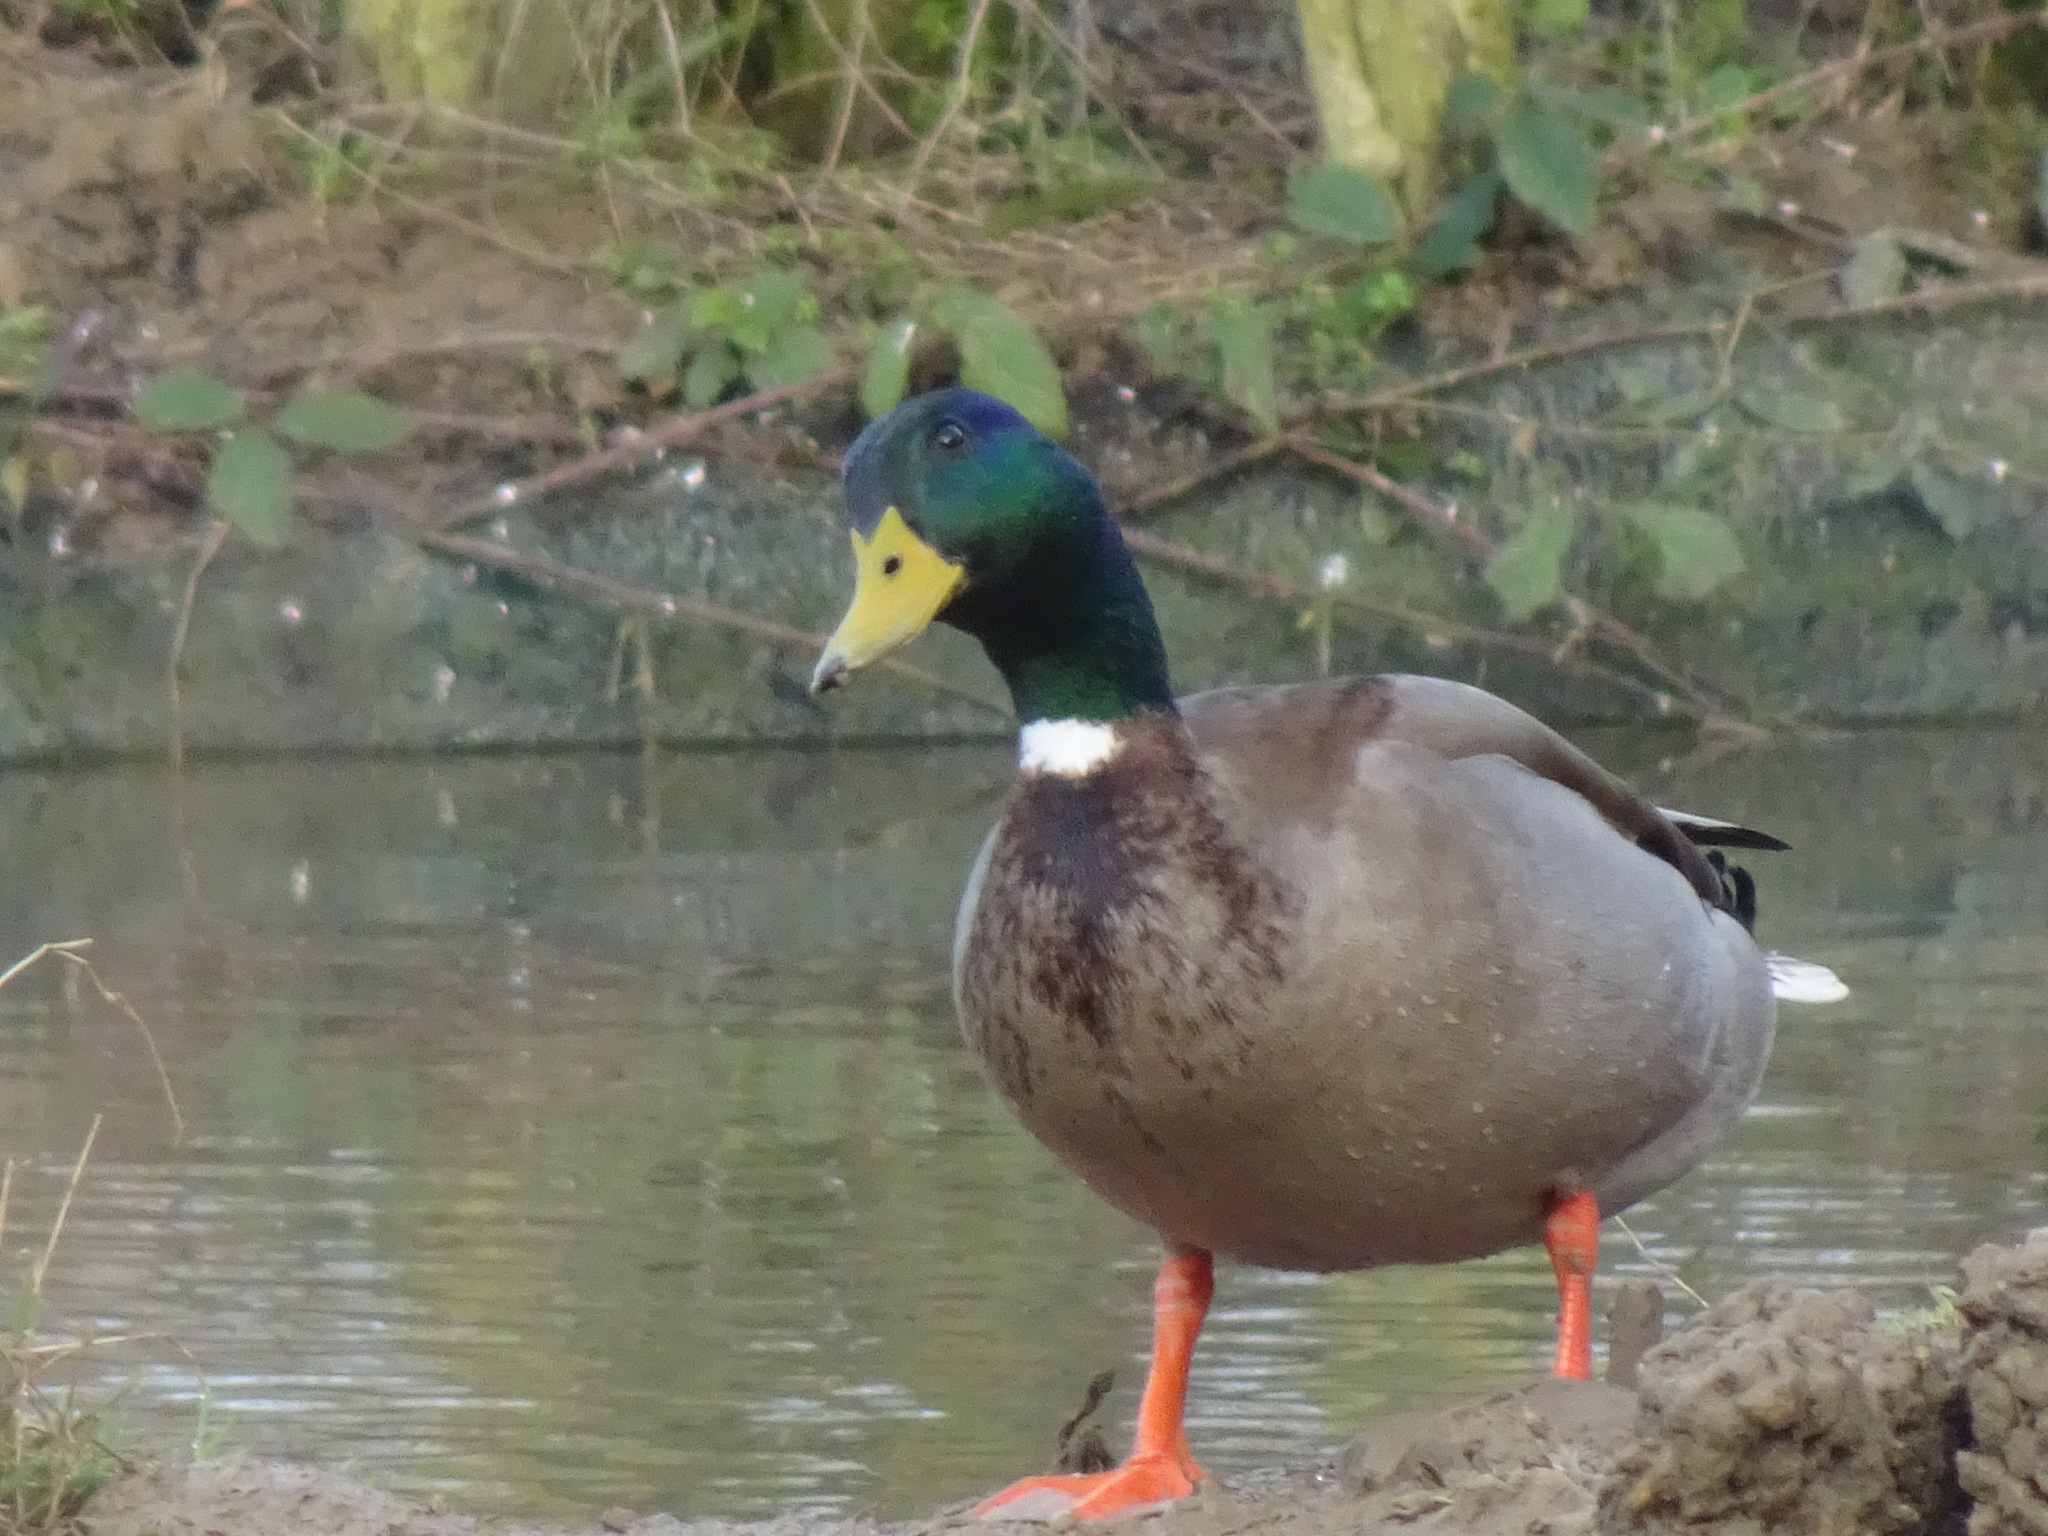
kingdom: Animalia
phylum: Chordata
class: Aves
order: Anseriformes
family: Anatidae
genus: Anas
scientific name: Anas platyrhynchos
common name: Mallard
